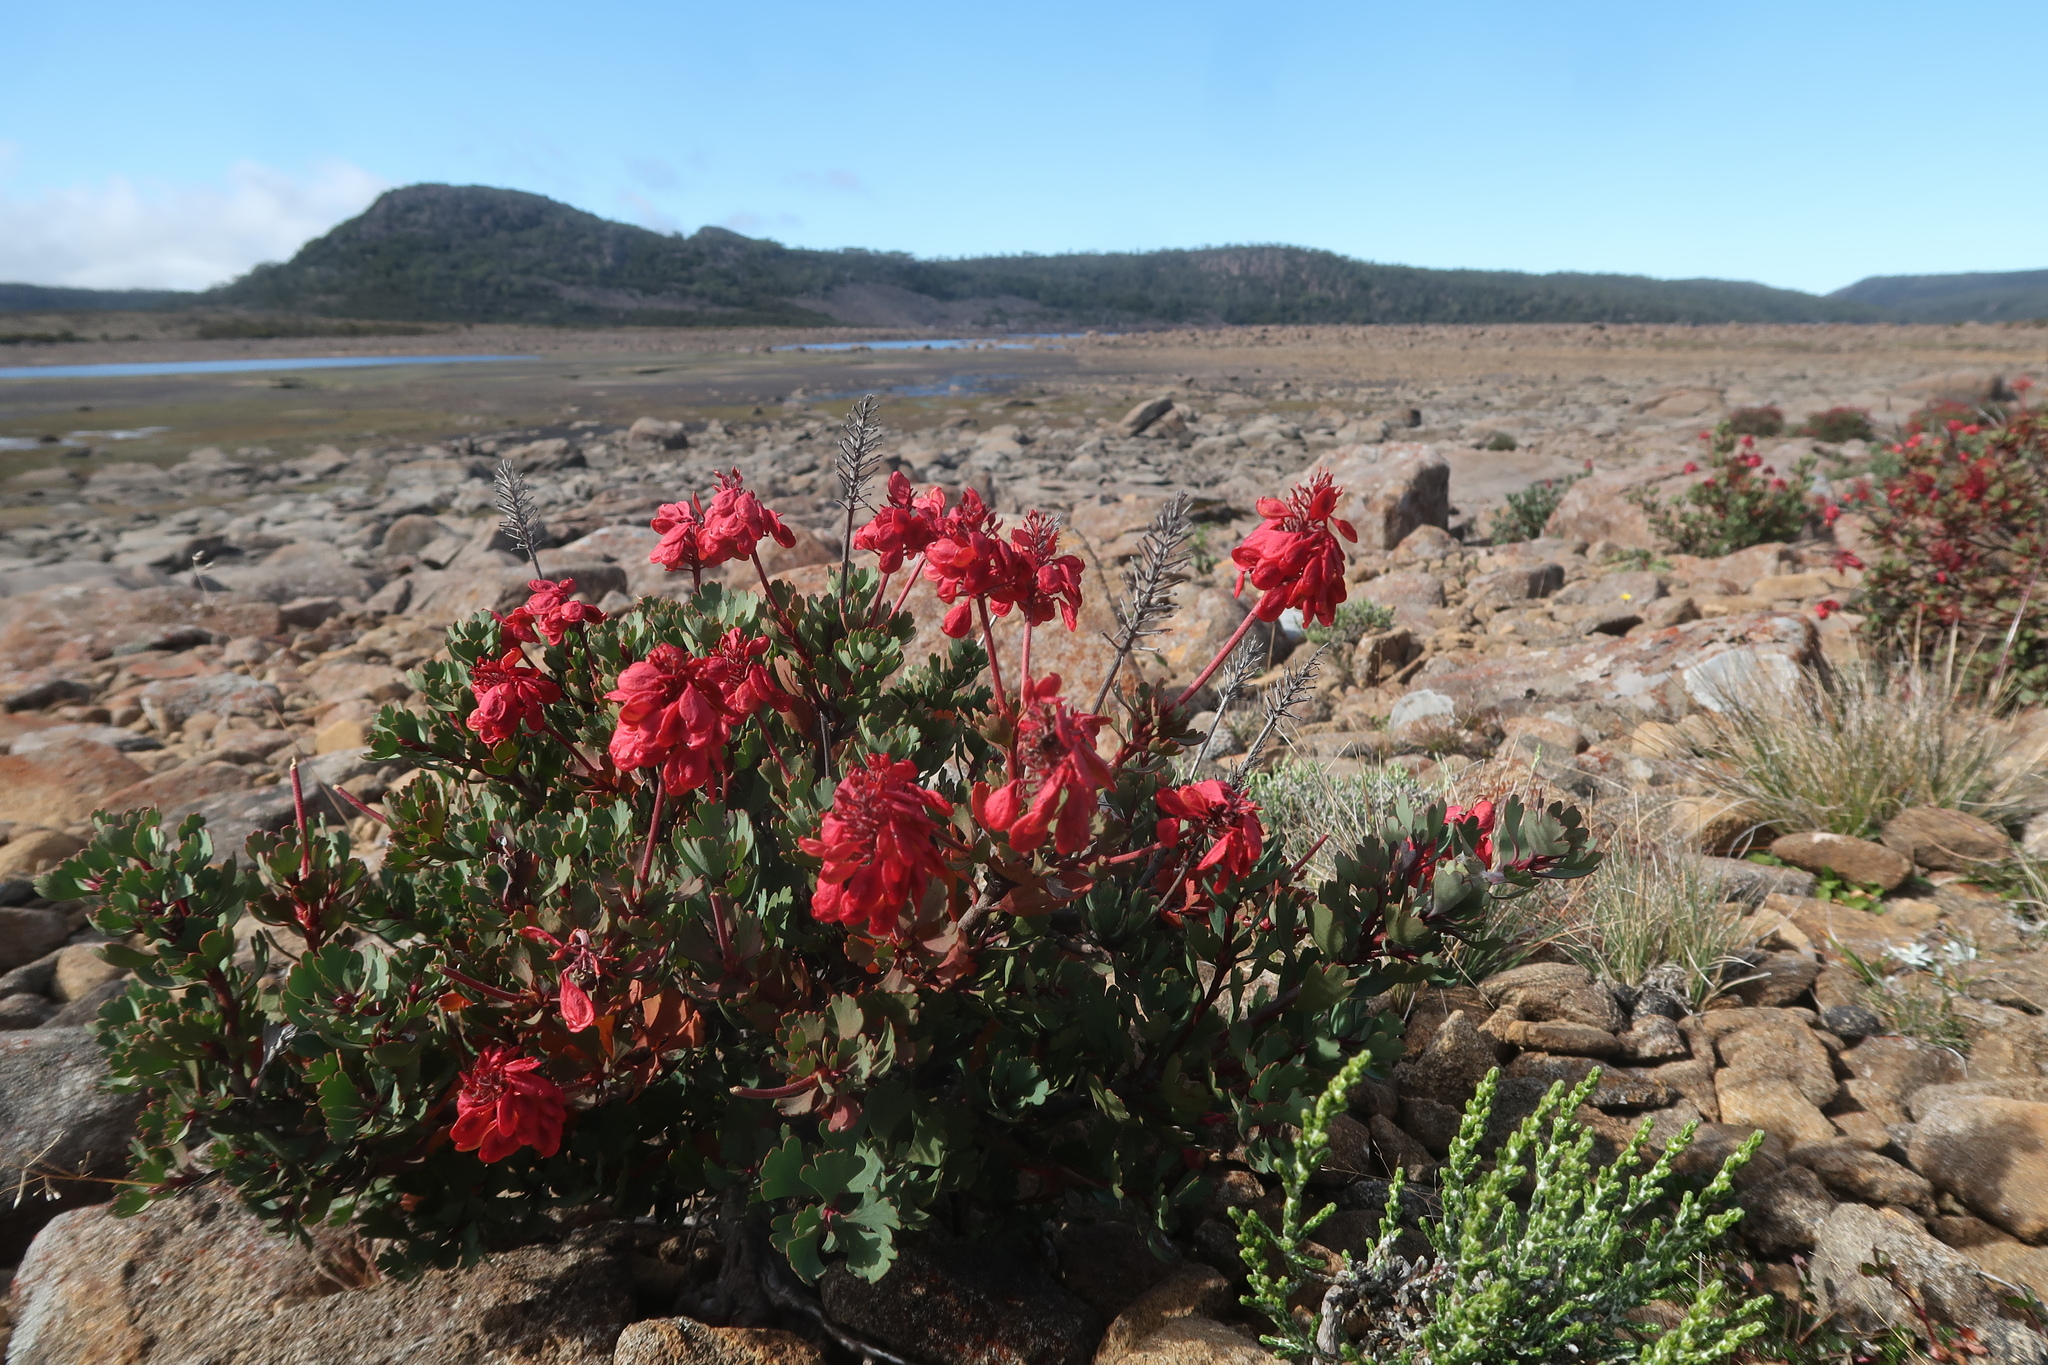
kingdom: Plantae
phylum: Tracheophyta
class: Magnoliopsida
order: Proteales
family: Proteaceae
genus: Bellendena
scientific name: Bellendena montana
